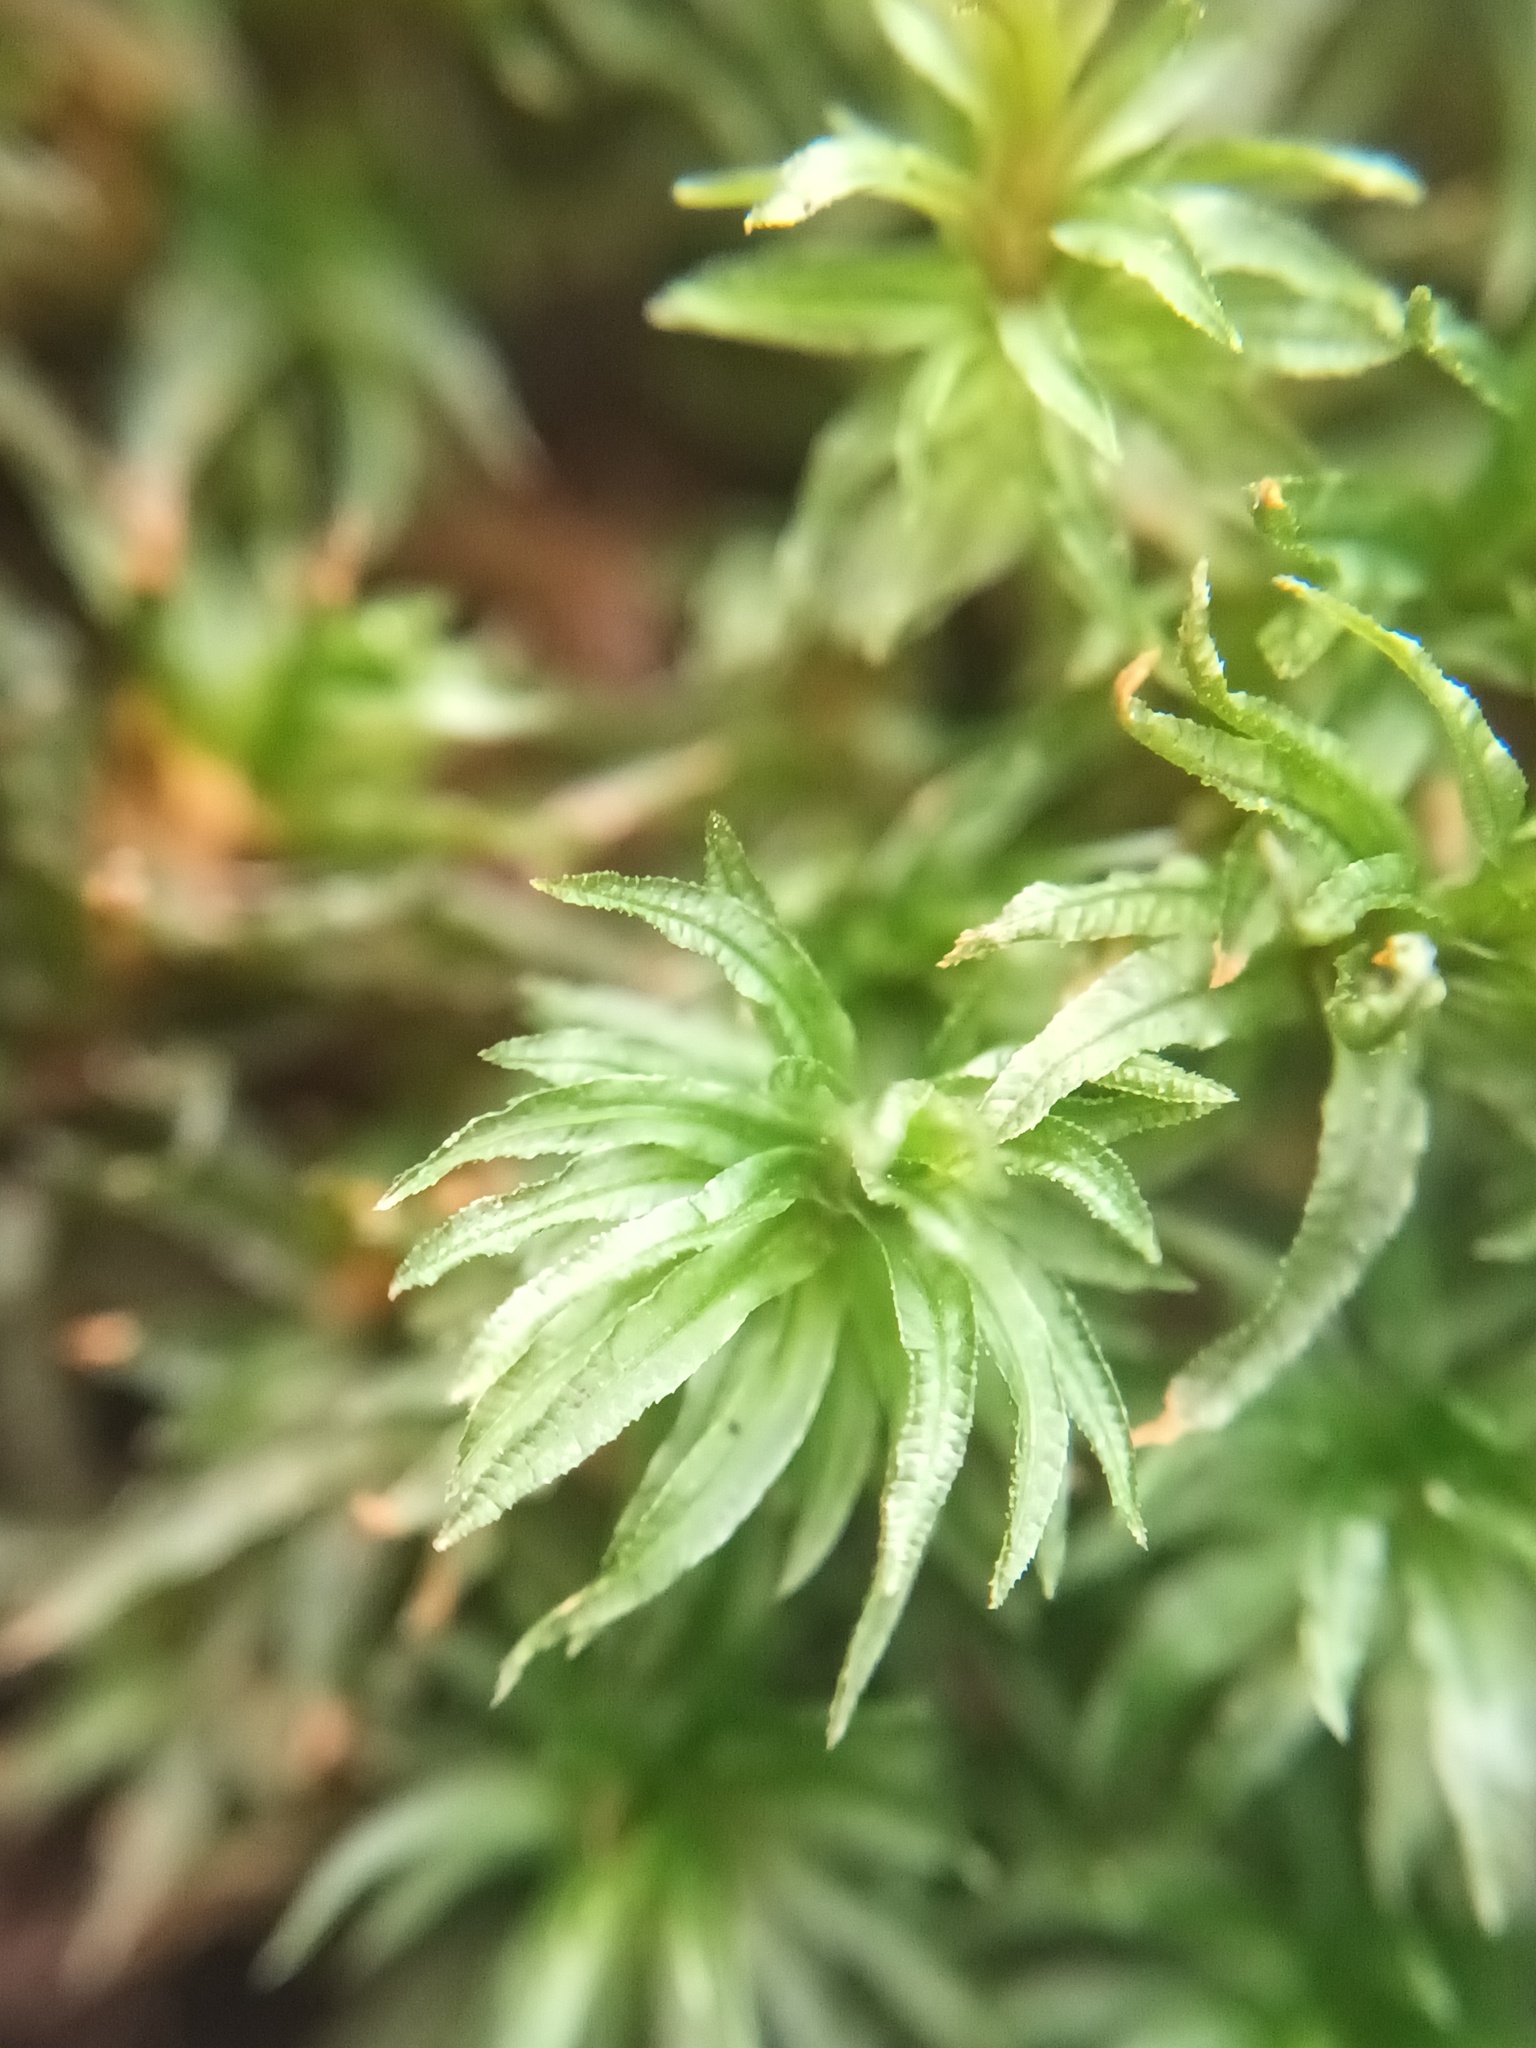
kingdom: Plantae
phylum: Bryophyta
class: Polytrichopsida
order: Polytrichales
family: Polytrichaceae
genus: Atrichum
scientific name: Atrichum undulatum
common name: Common smoothcap
